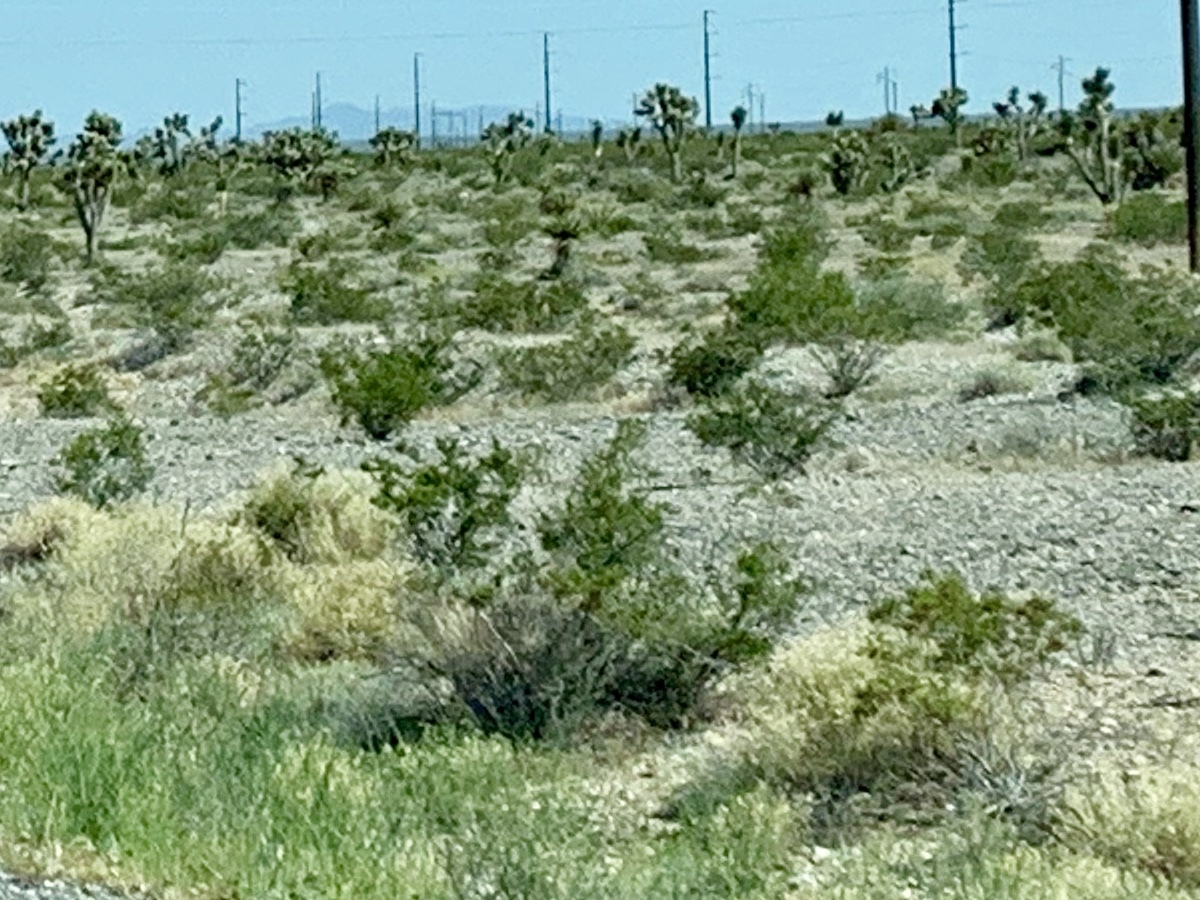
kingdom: Plantae
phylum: Tracheophyta
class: Magnoliopsida
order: Zygophyllales
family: Zygophyllaceae
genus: Larrea
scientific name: Larrea tridentata
